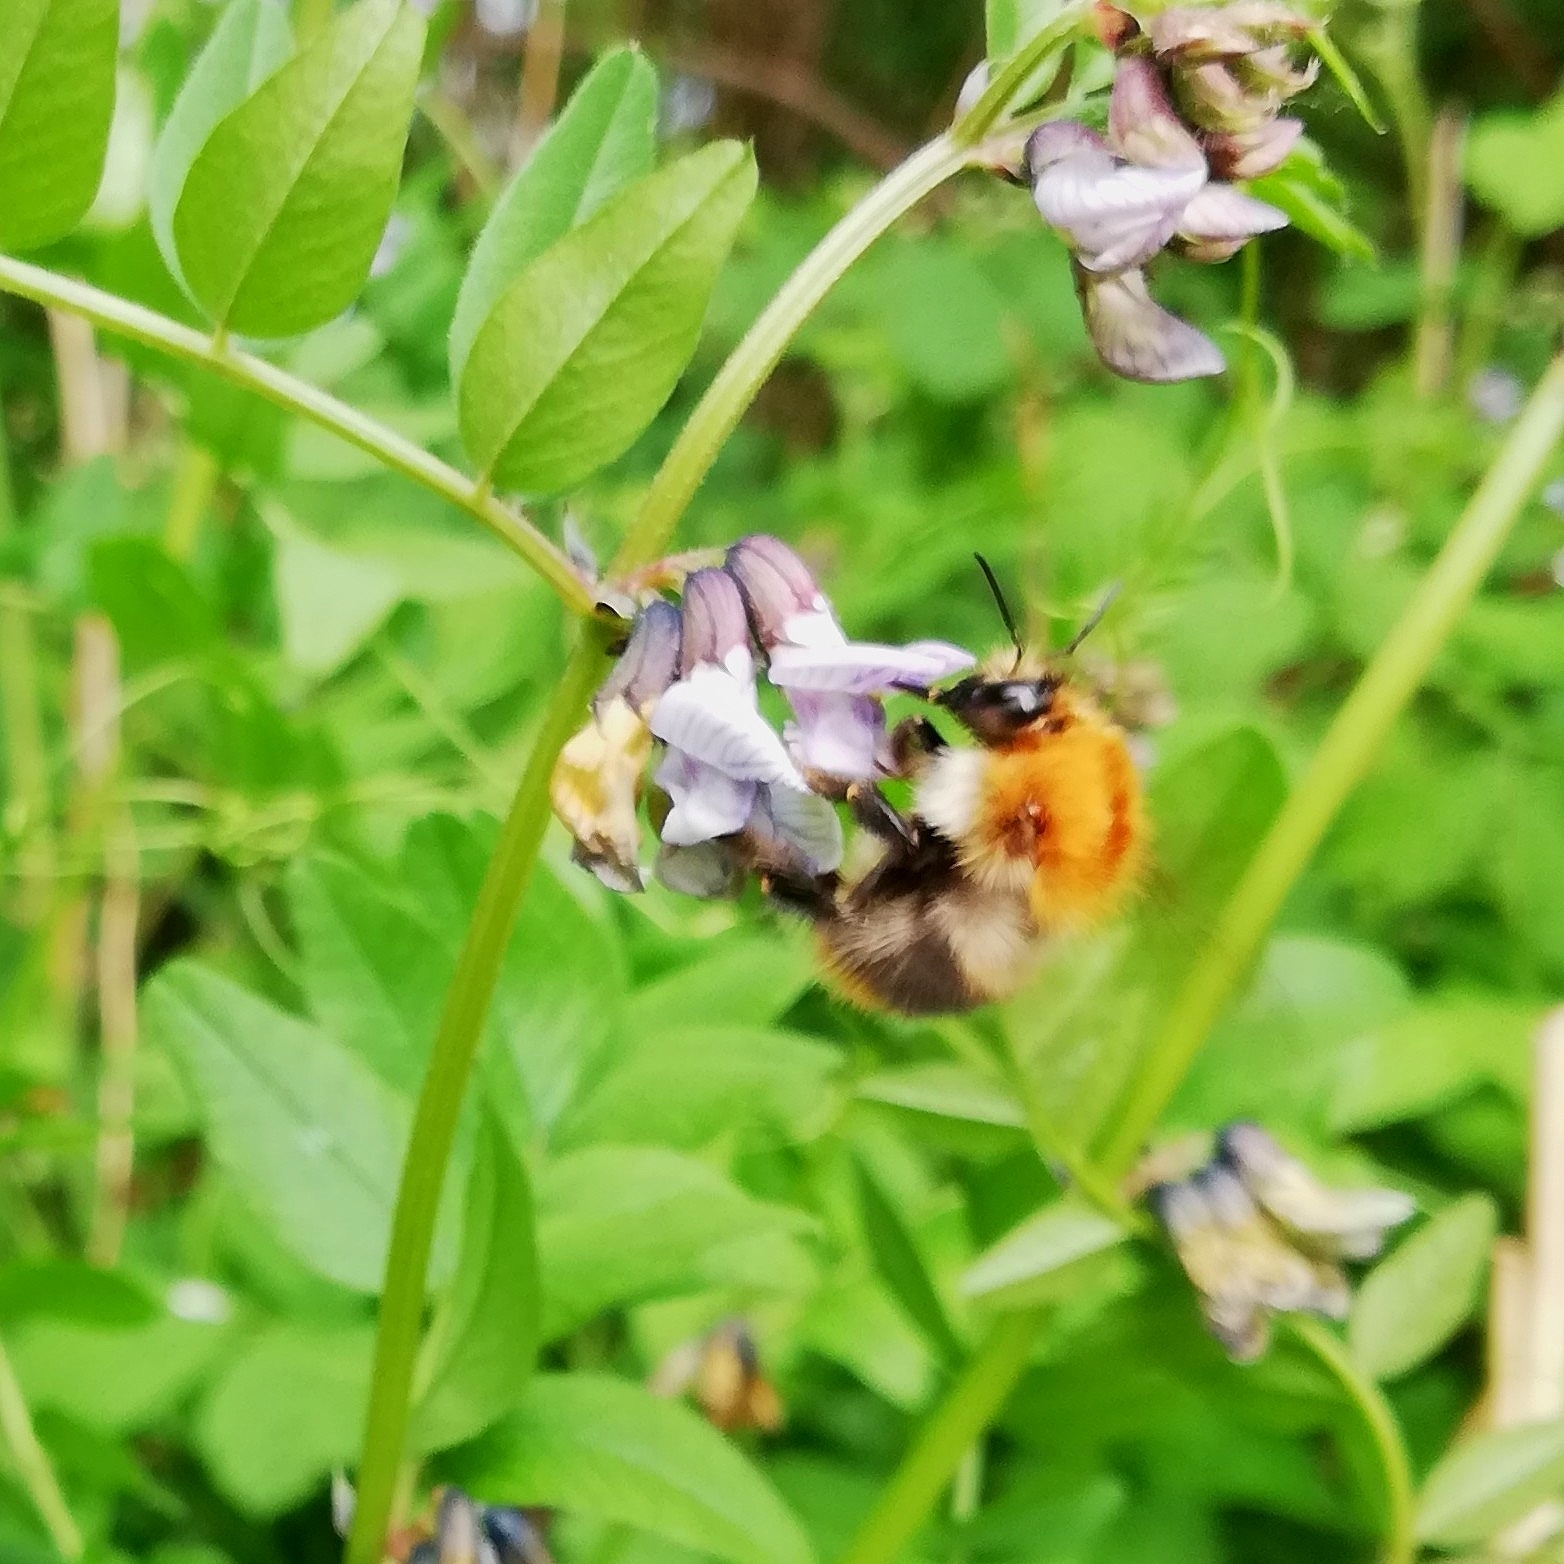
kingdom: Animalia
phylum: Arthropoda
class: Insecta
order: Hymenoptera
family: Apidae
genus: Bombus
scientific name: Bombus pascuorum
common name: Common carder bee
